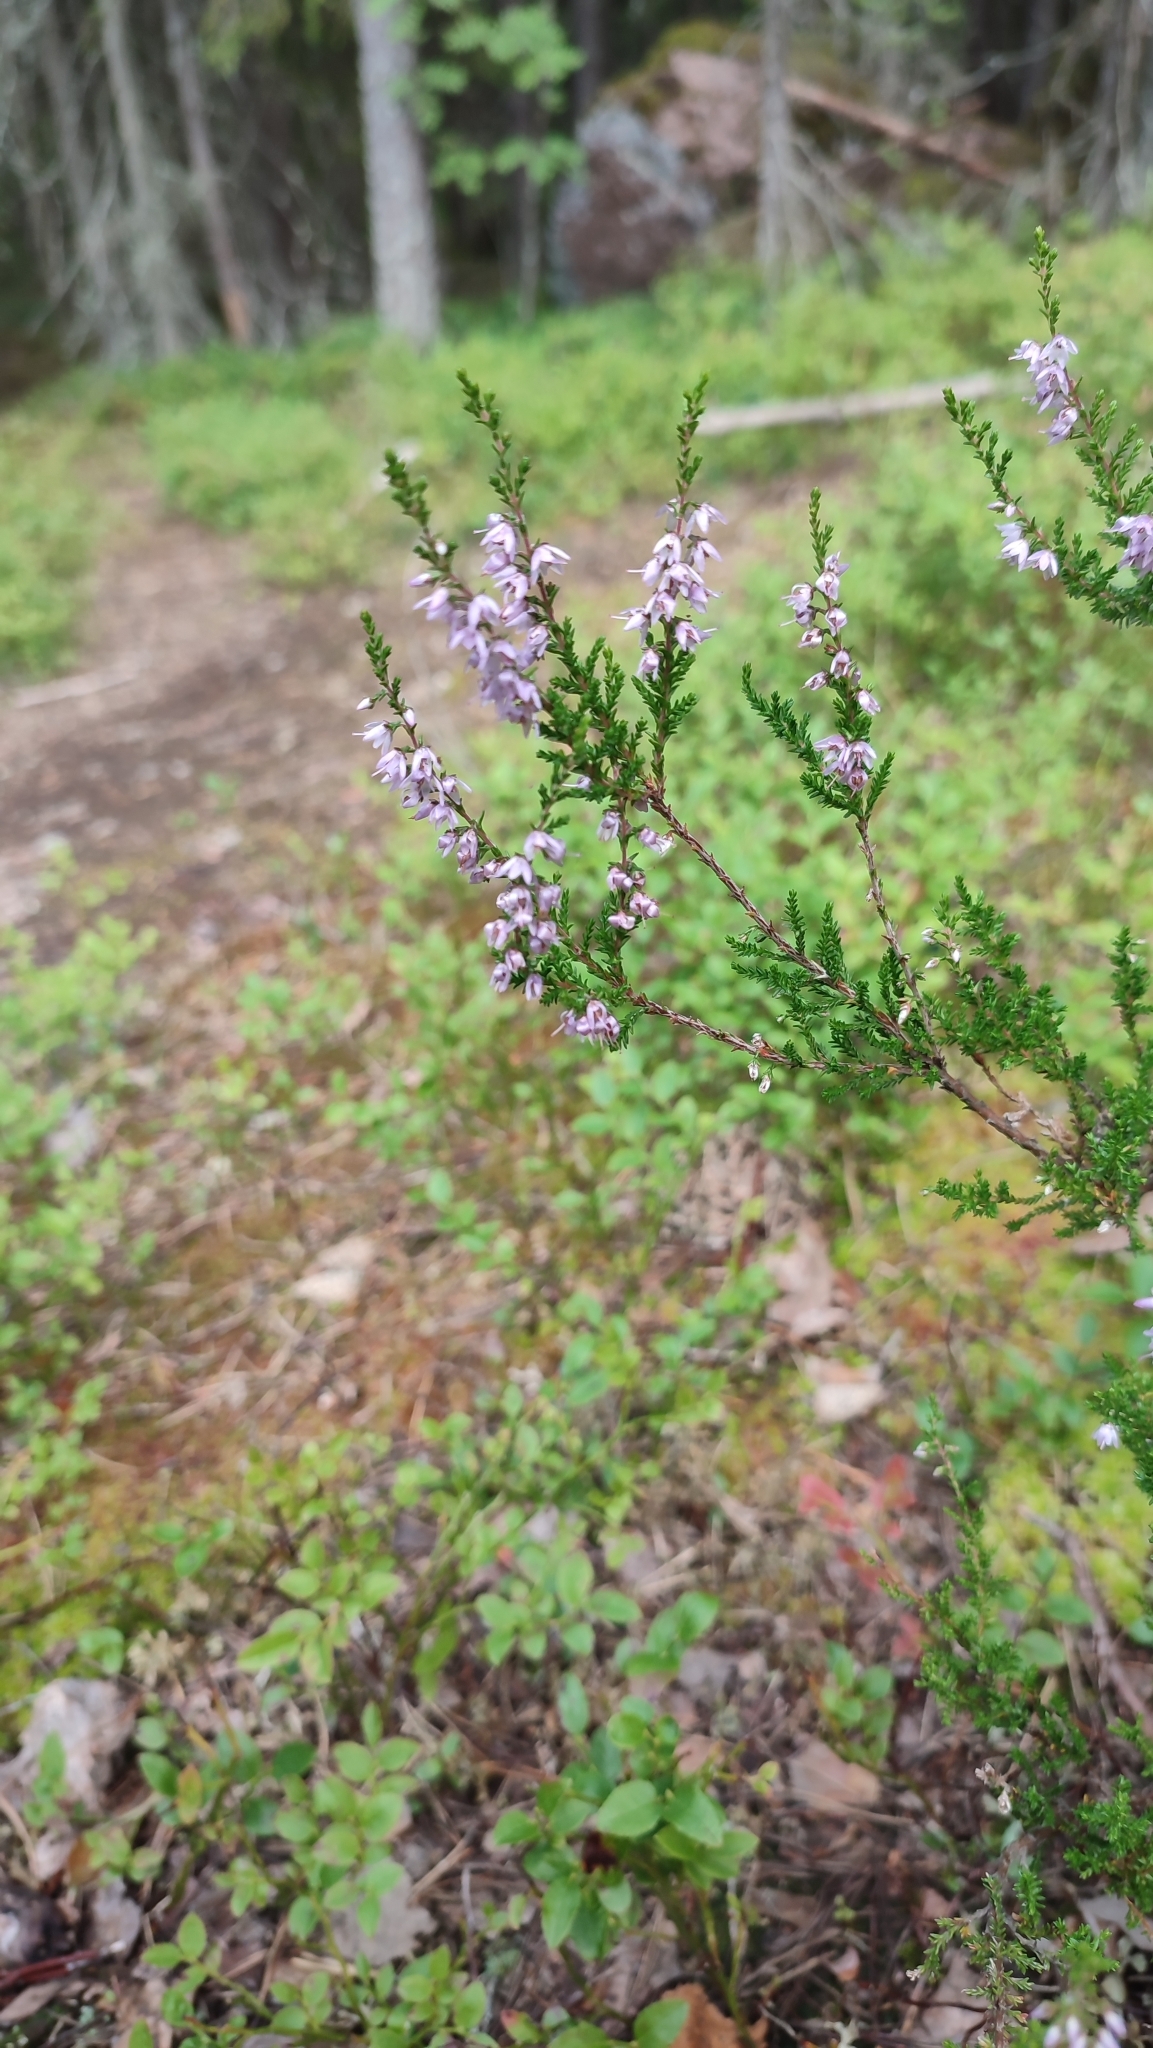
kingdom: Plantae
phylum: Tracheophyta
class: Magnoliopsida
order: Ericales
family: Ericaceae
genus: Calluna
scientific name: Calluna vulgaris
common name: Heather
